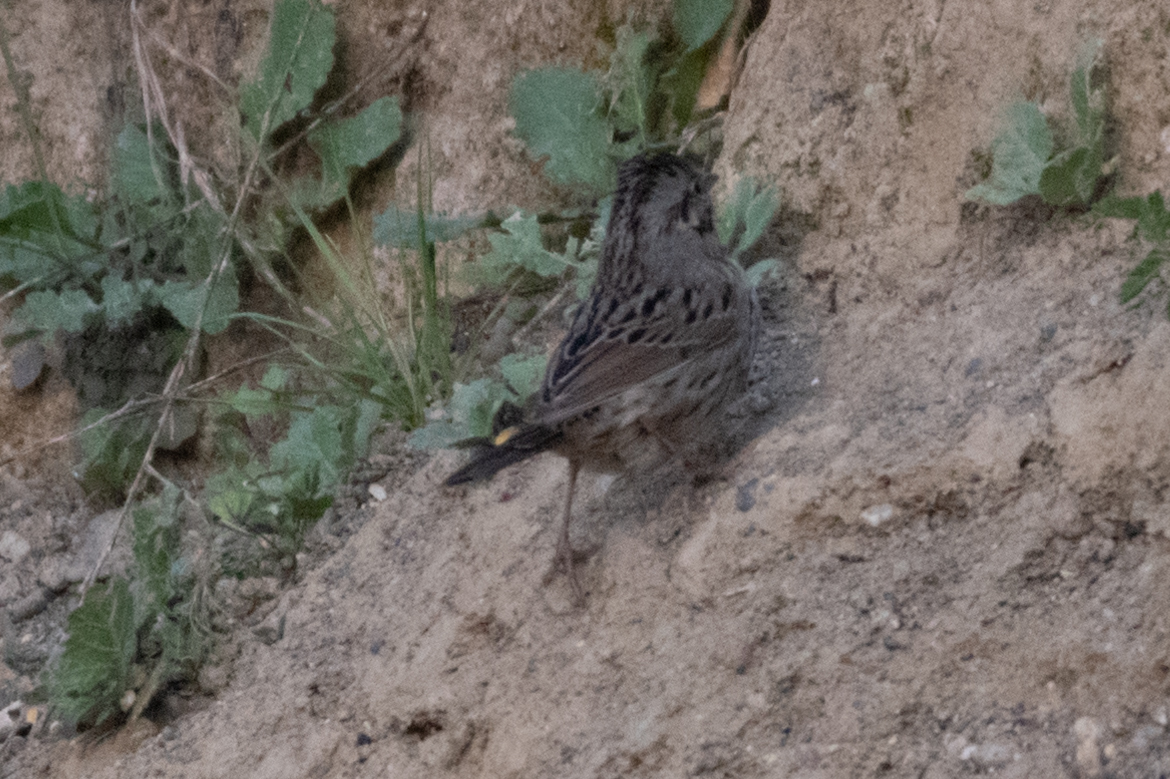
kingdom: Animalia
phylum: Chordata
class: Aves
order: Passeriformes
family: Passerellidae
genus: Melospiza
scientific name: Melospiza lincolnii
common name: Lincoln's sparrow
